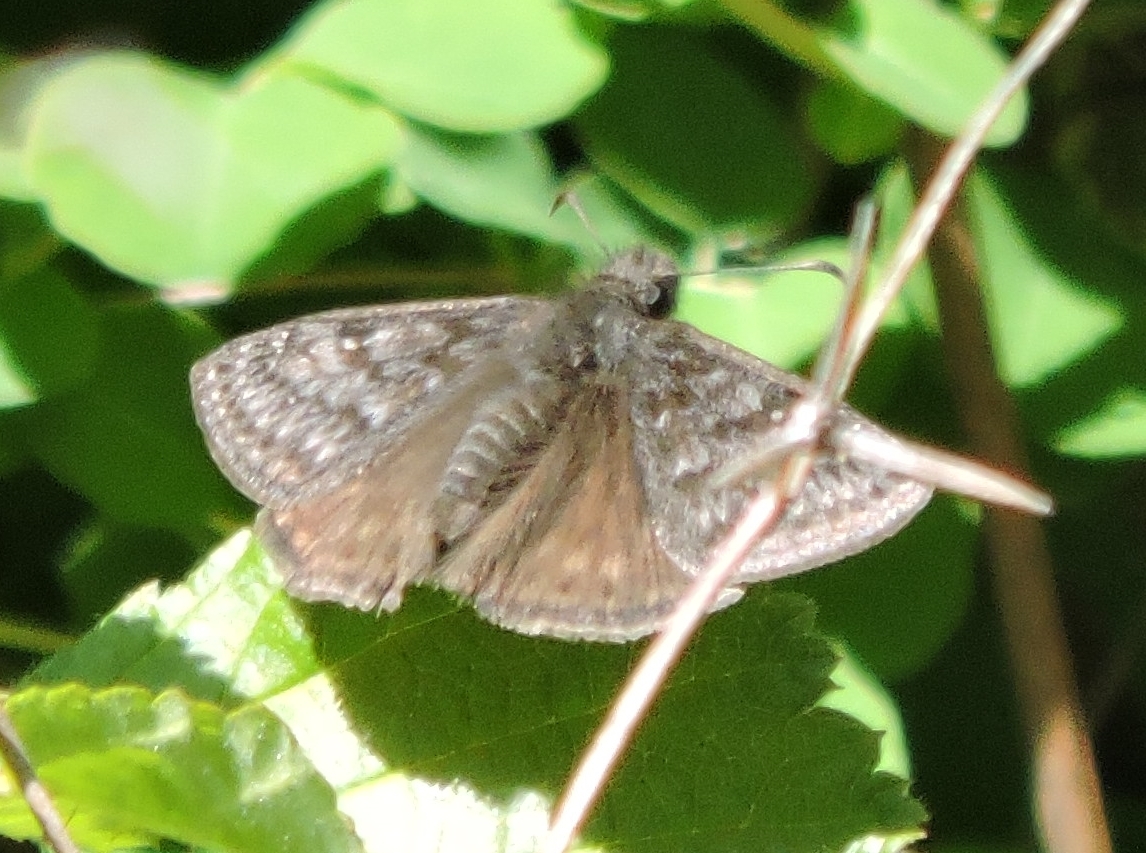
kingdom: Animalia
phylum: Arthropoda
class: Insecta
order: Lepidoptera
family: Hesperiidae
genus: Erynnis
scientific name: Erynnis propertius
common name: Propertius duskywing
